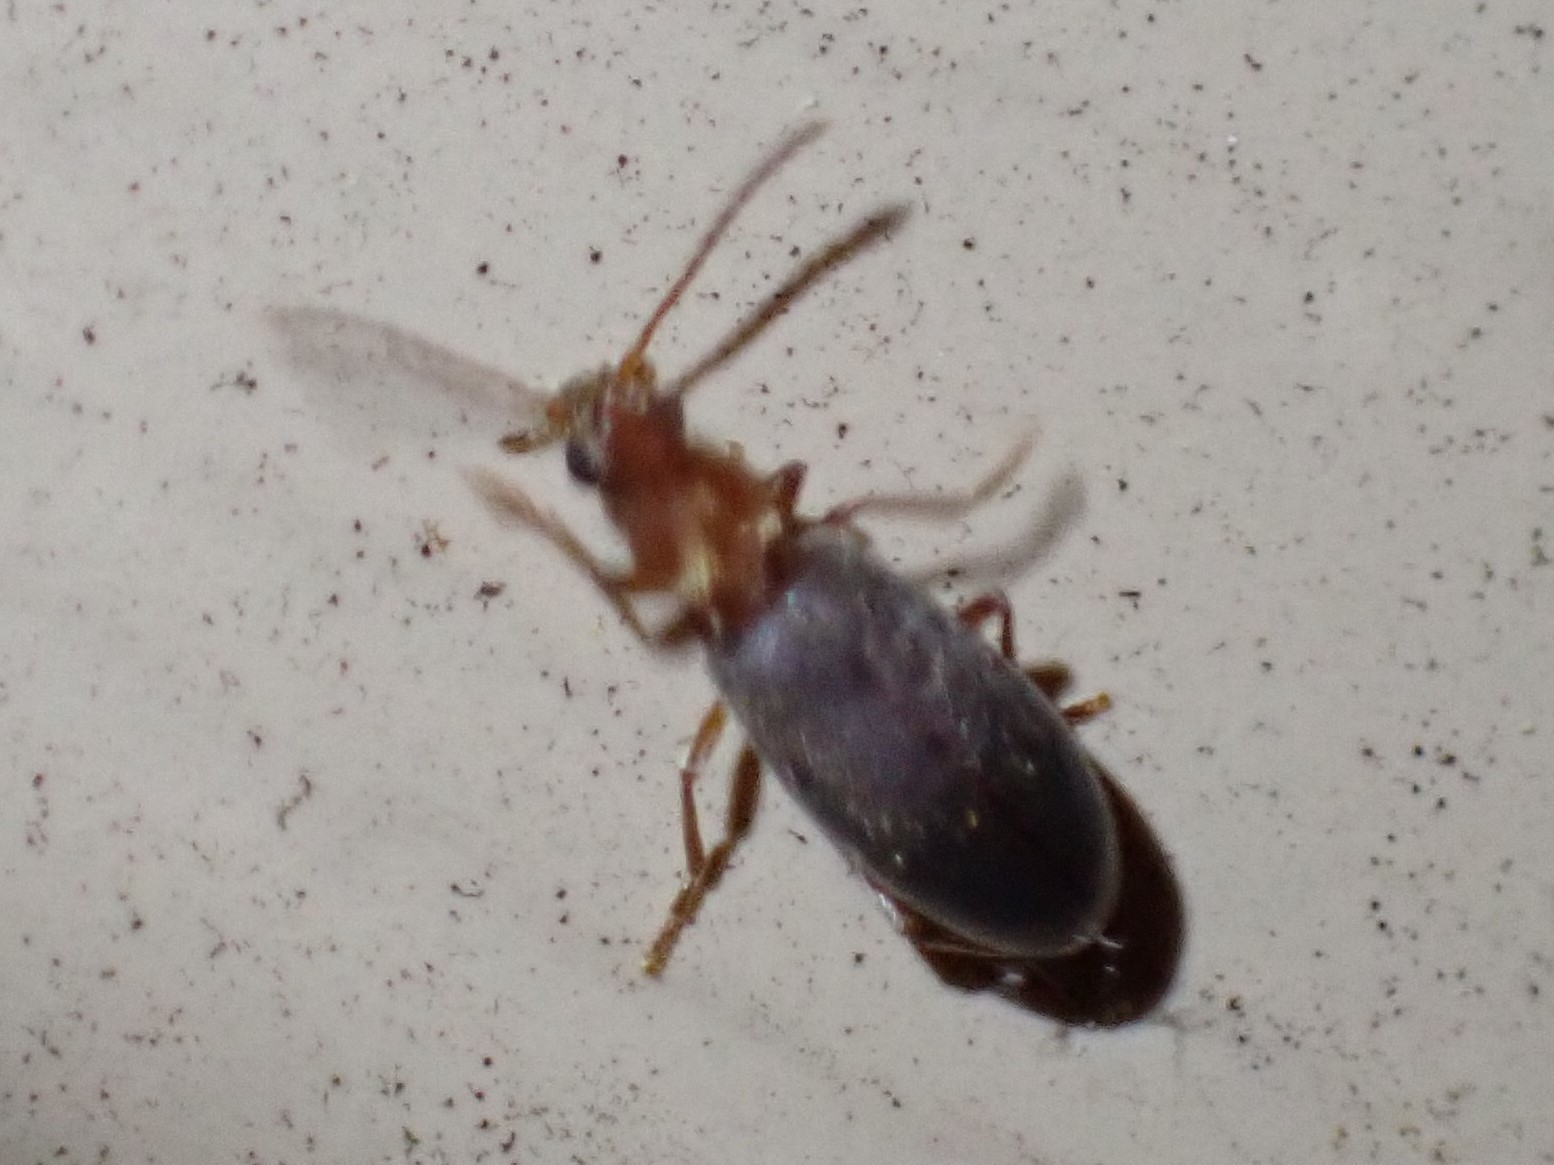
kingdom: Animalia
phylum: Arthropoda
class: Insecta
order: Coleoptera
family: Anthicidae
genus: Notoxus
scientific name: Notoxus murinipennis
